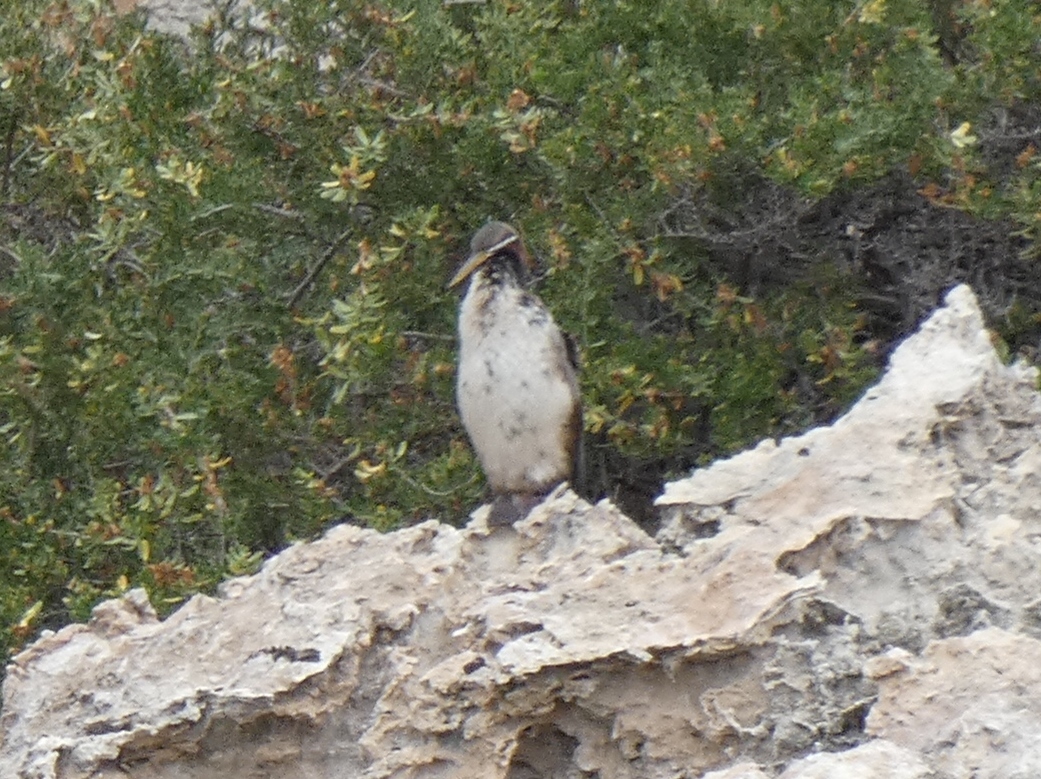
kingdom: Animalia
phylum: Chordata
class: Aves
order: Suliformes
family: Anhingidae
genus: Anhinga
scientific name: Anhinga novaehollandiae
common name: Australasian darter
